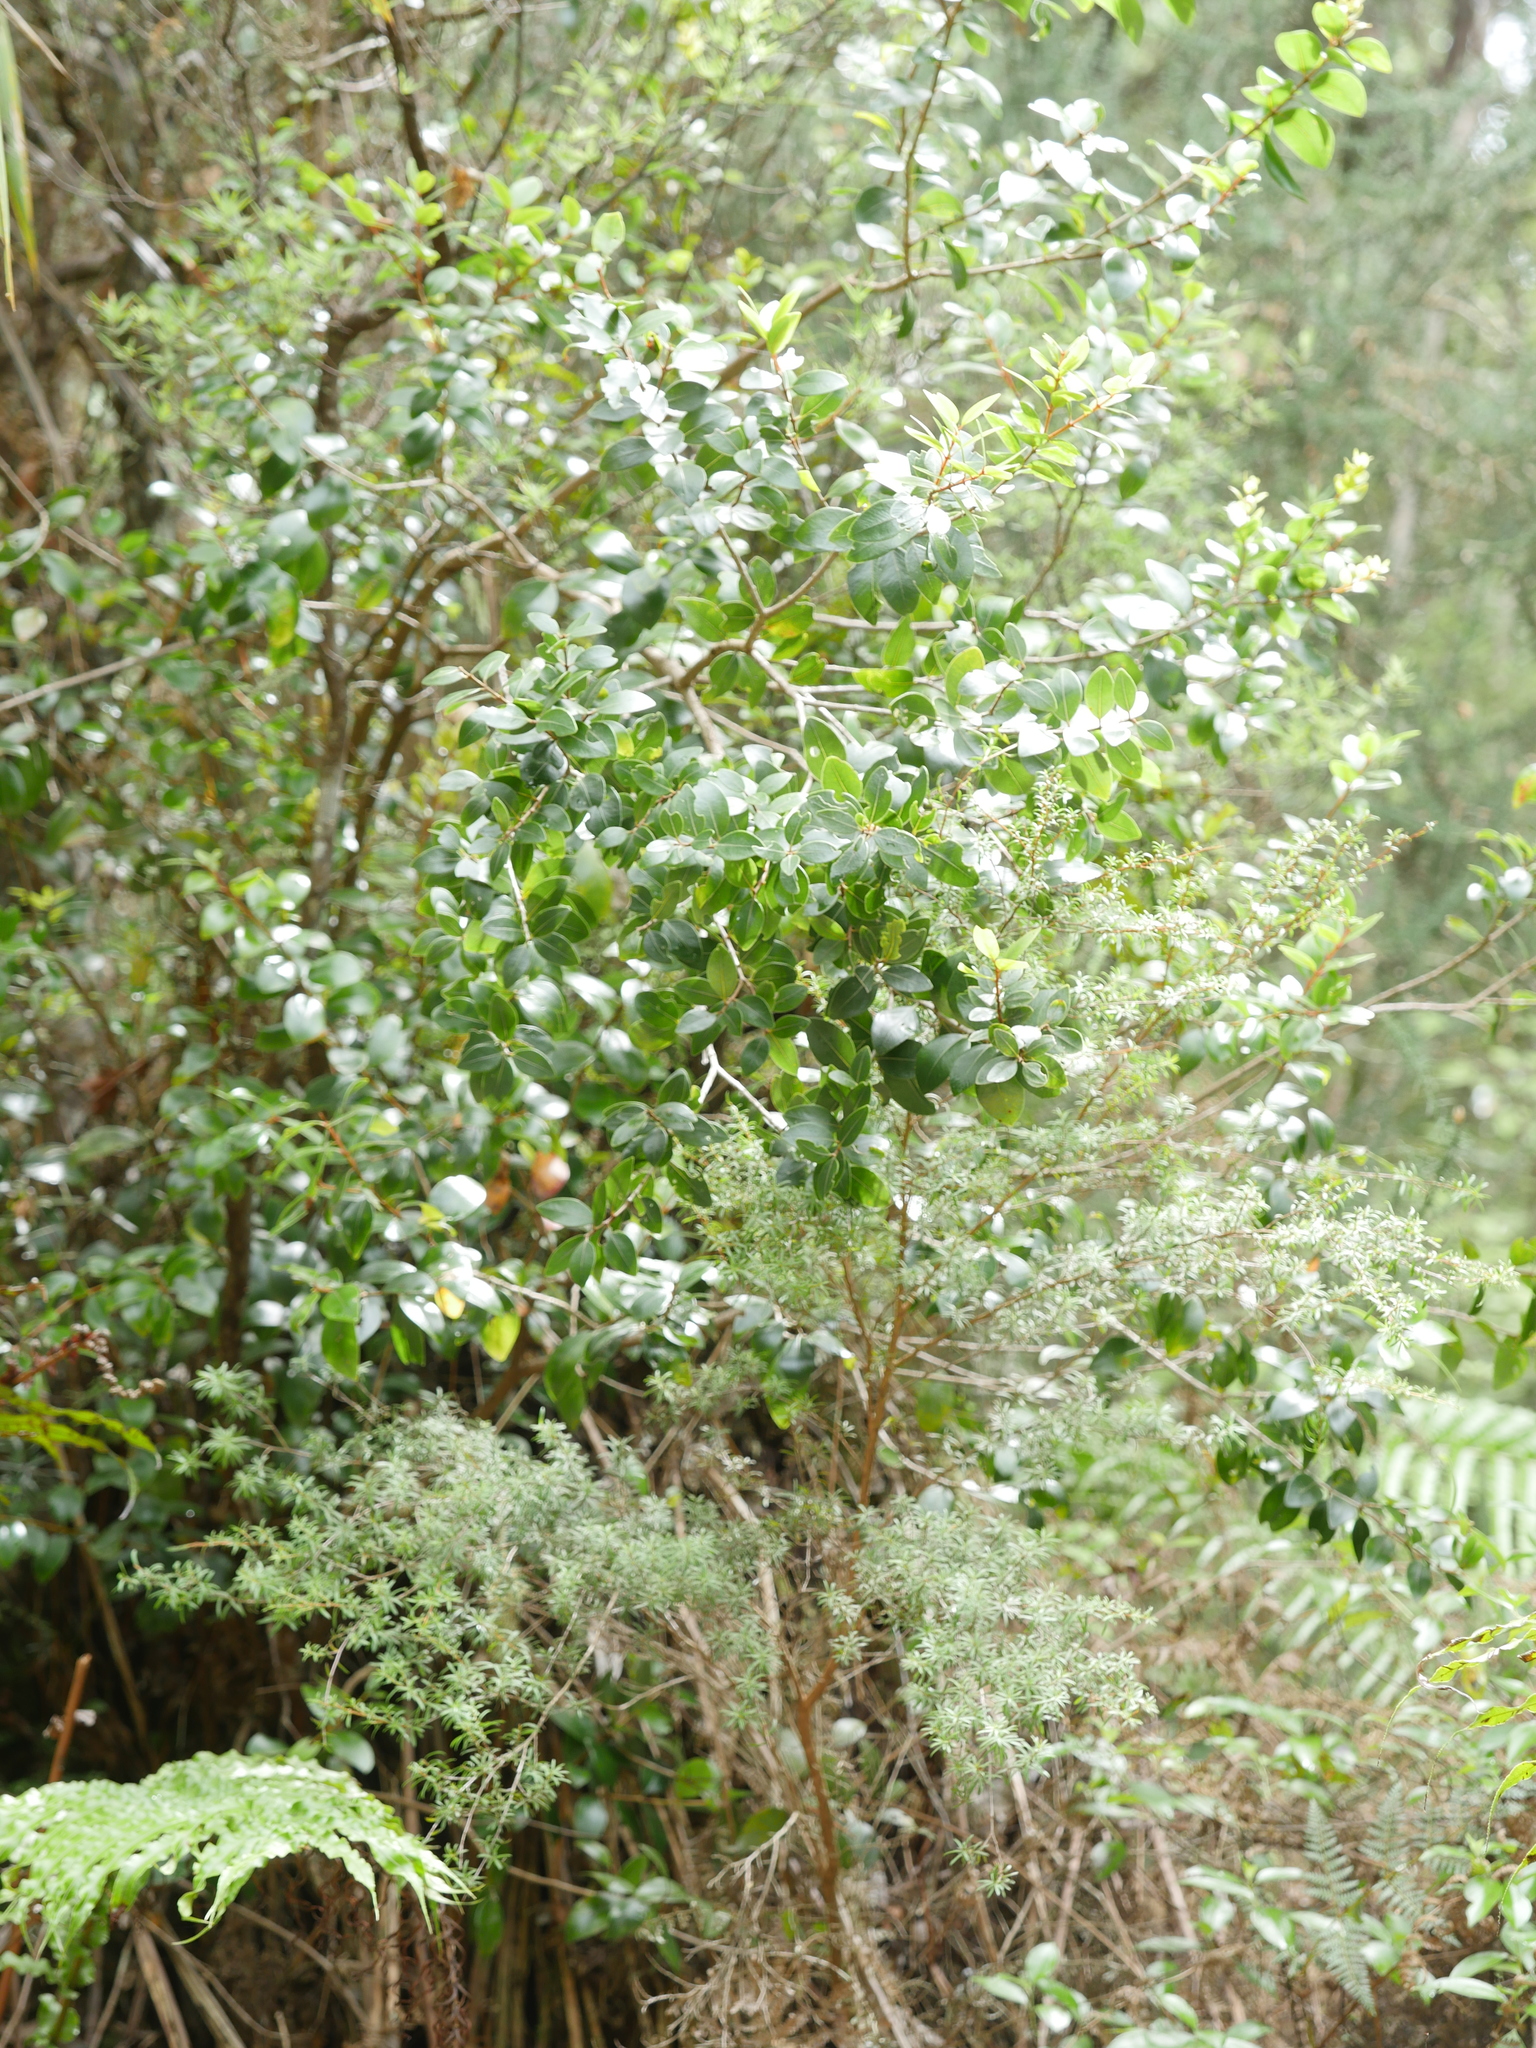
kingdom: Plantae
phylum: Tracheophyta
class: Magnoliopsida
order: Myrtales
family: Myrtaceae
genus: Metrosideros
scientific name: Metrosideros robusta
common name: Northern rata
